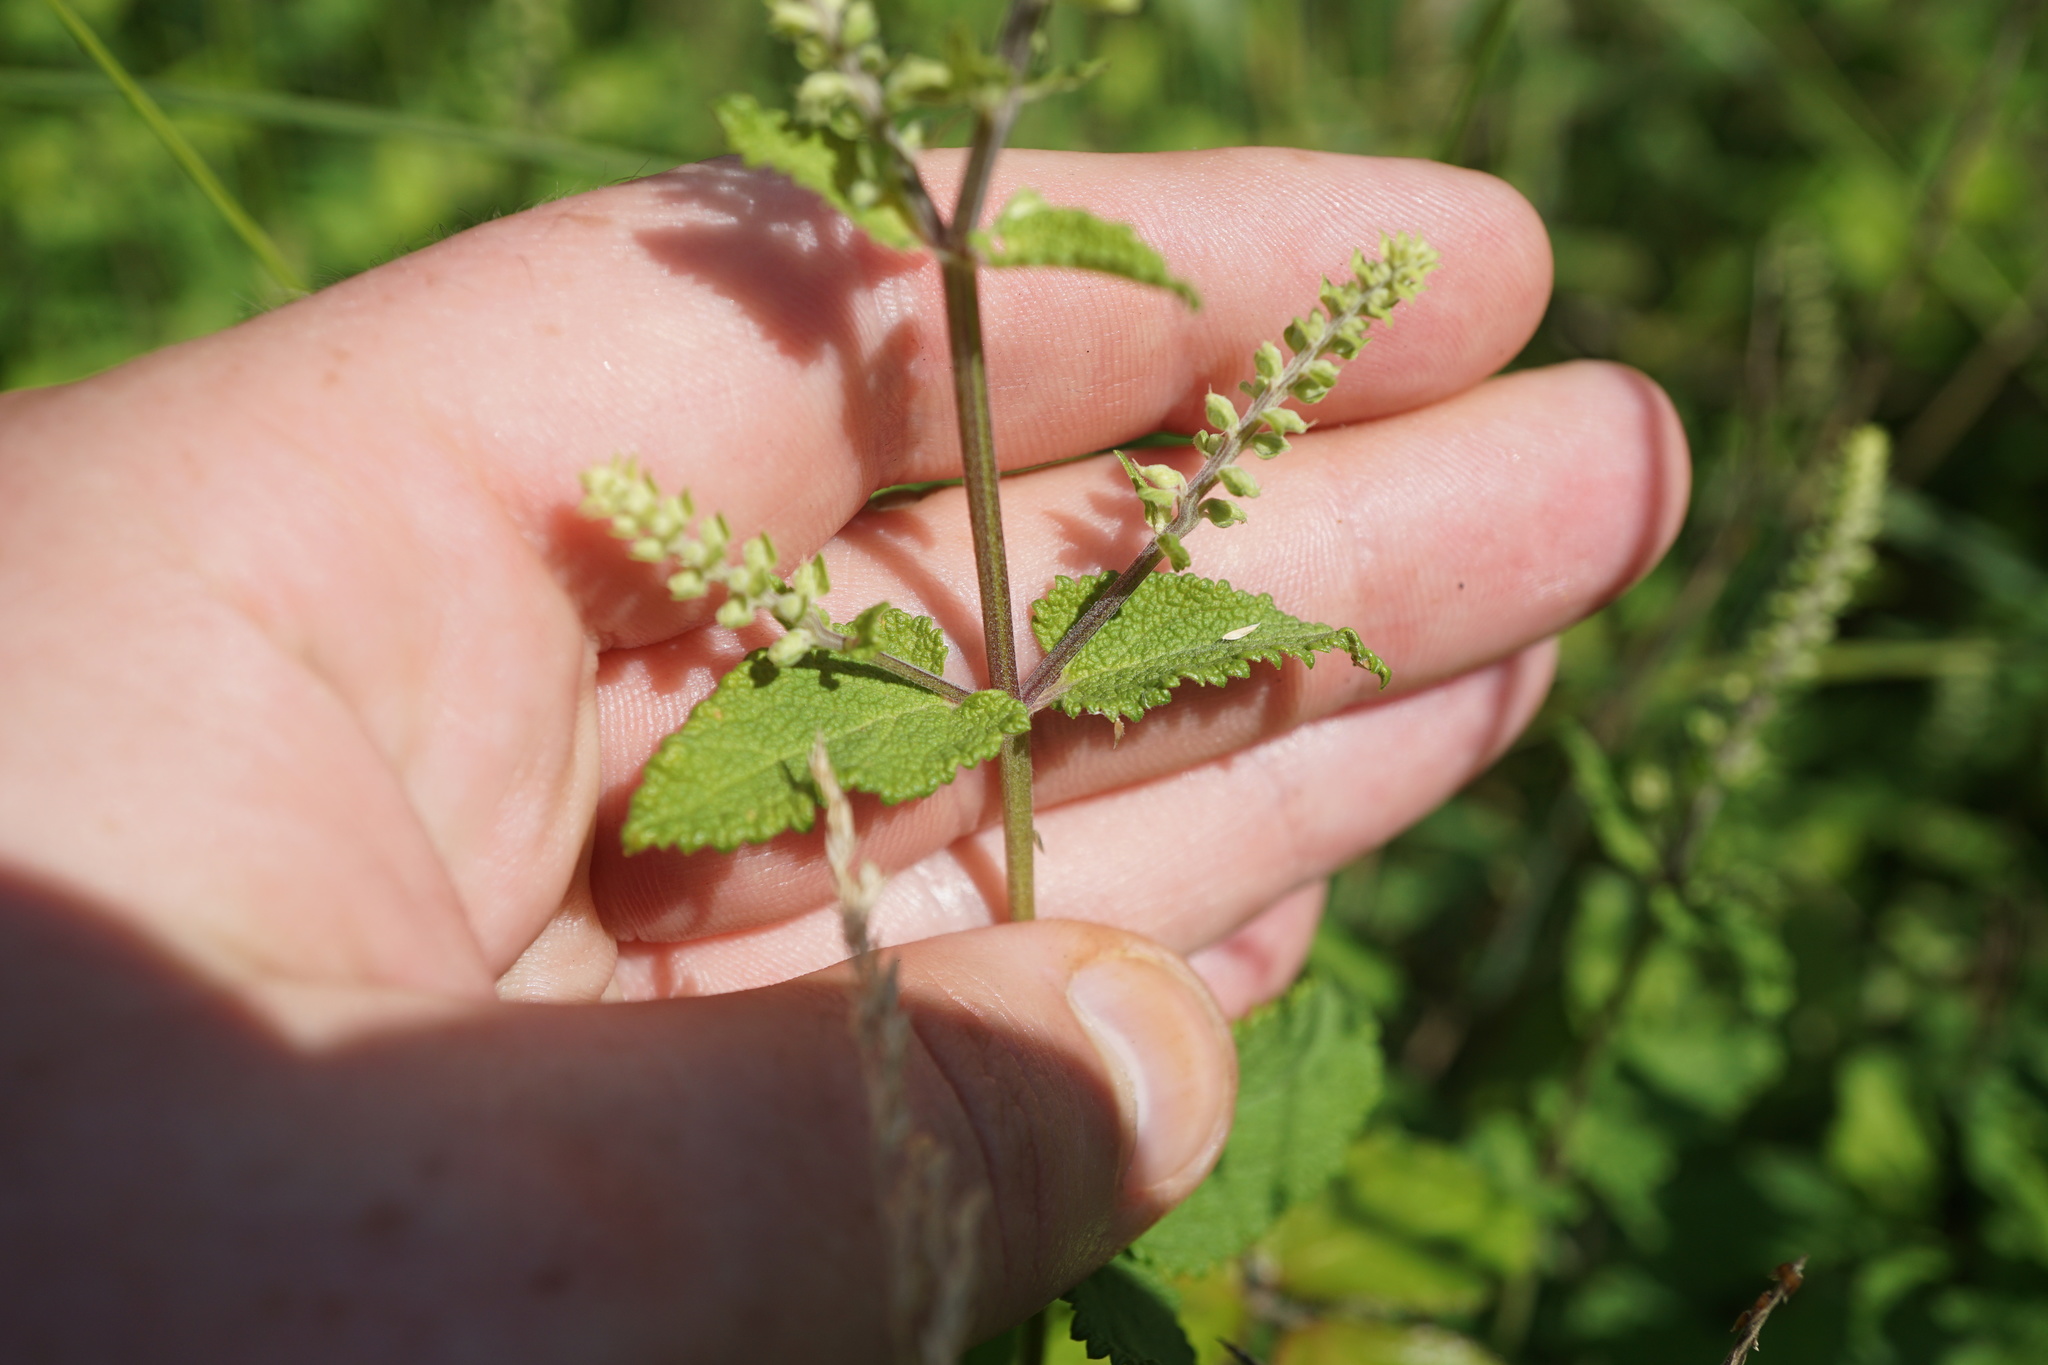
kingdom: Plantae
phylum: Tracheophyta
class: Magnoliopsida
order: Lamiales
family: Lamiaceae
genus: Teucrium
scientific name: Teucrium scorodonia
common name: Woodland germander
